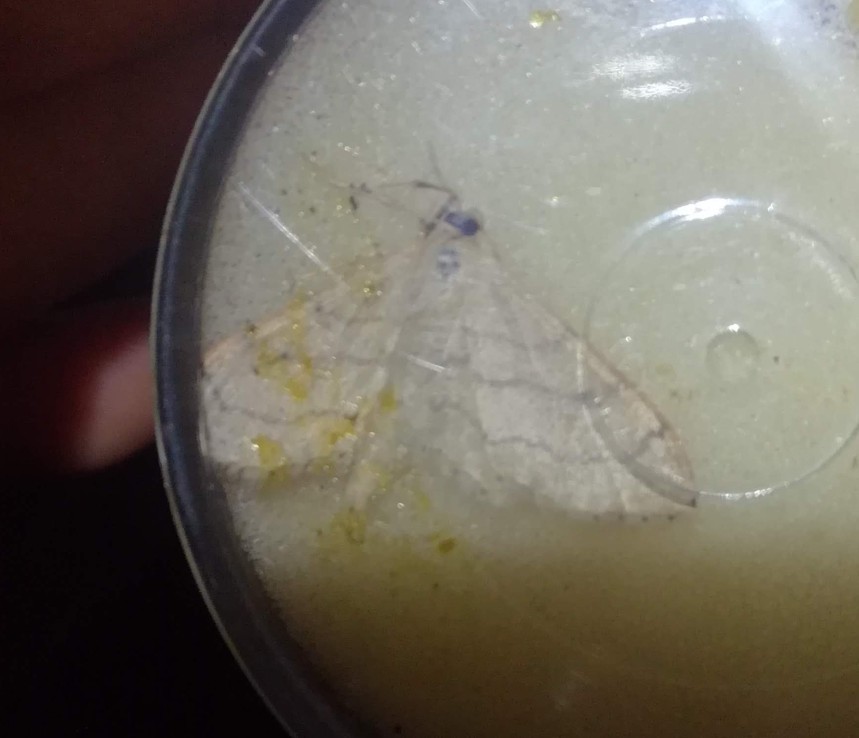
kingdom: Animalia
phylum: Arthropoda
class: Insecta
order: Lepidoptera
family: Geometridae
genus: Idaea
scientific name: Idaea aversata
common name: Riband wave
